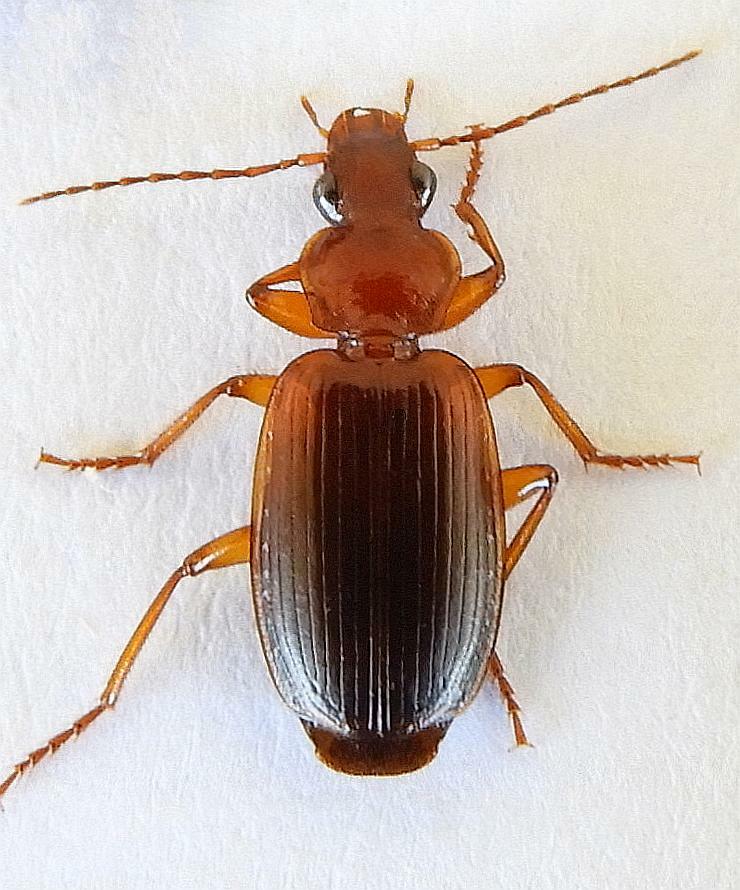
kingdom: Animalia
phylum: Arthropoda
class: Insecta
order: Coleoptera
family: Carabidae
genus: Pinacodera
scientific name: Pinacodera punctifera
